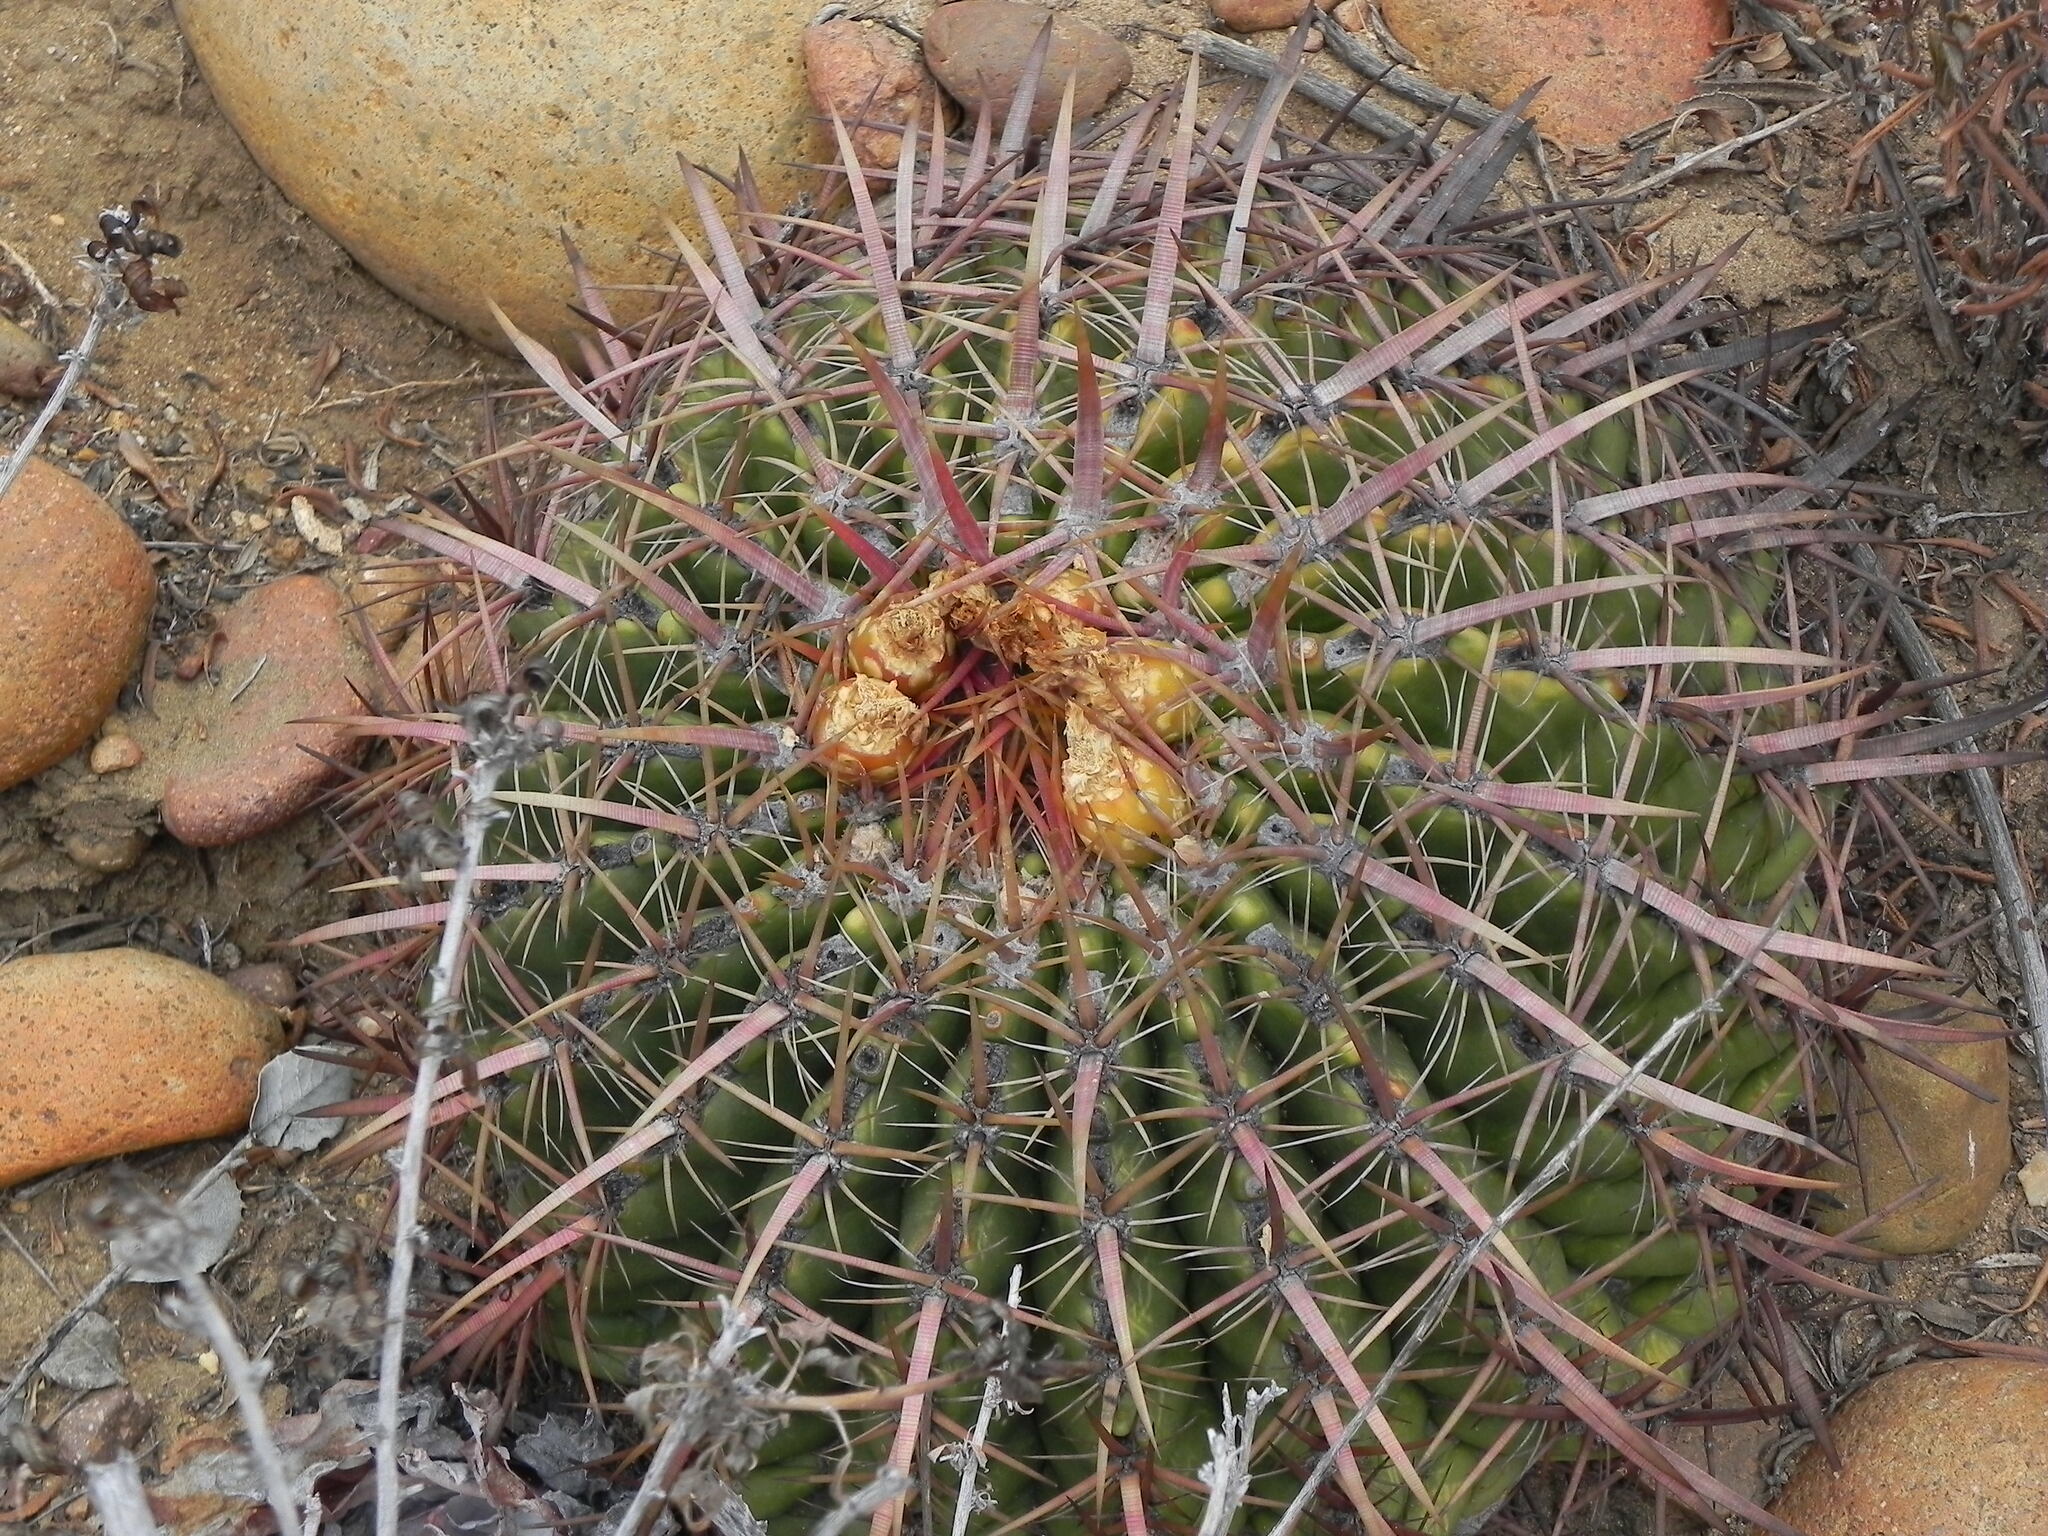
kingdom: Plantae
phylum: Tracheophyta
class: Magnoliopsida
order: Caryophyllales
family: Cactaceae
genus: Ferocactus
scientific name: Ferocactus viridescens
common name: San diego barrel cactus
